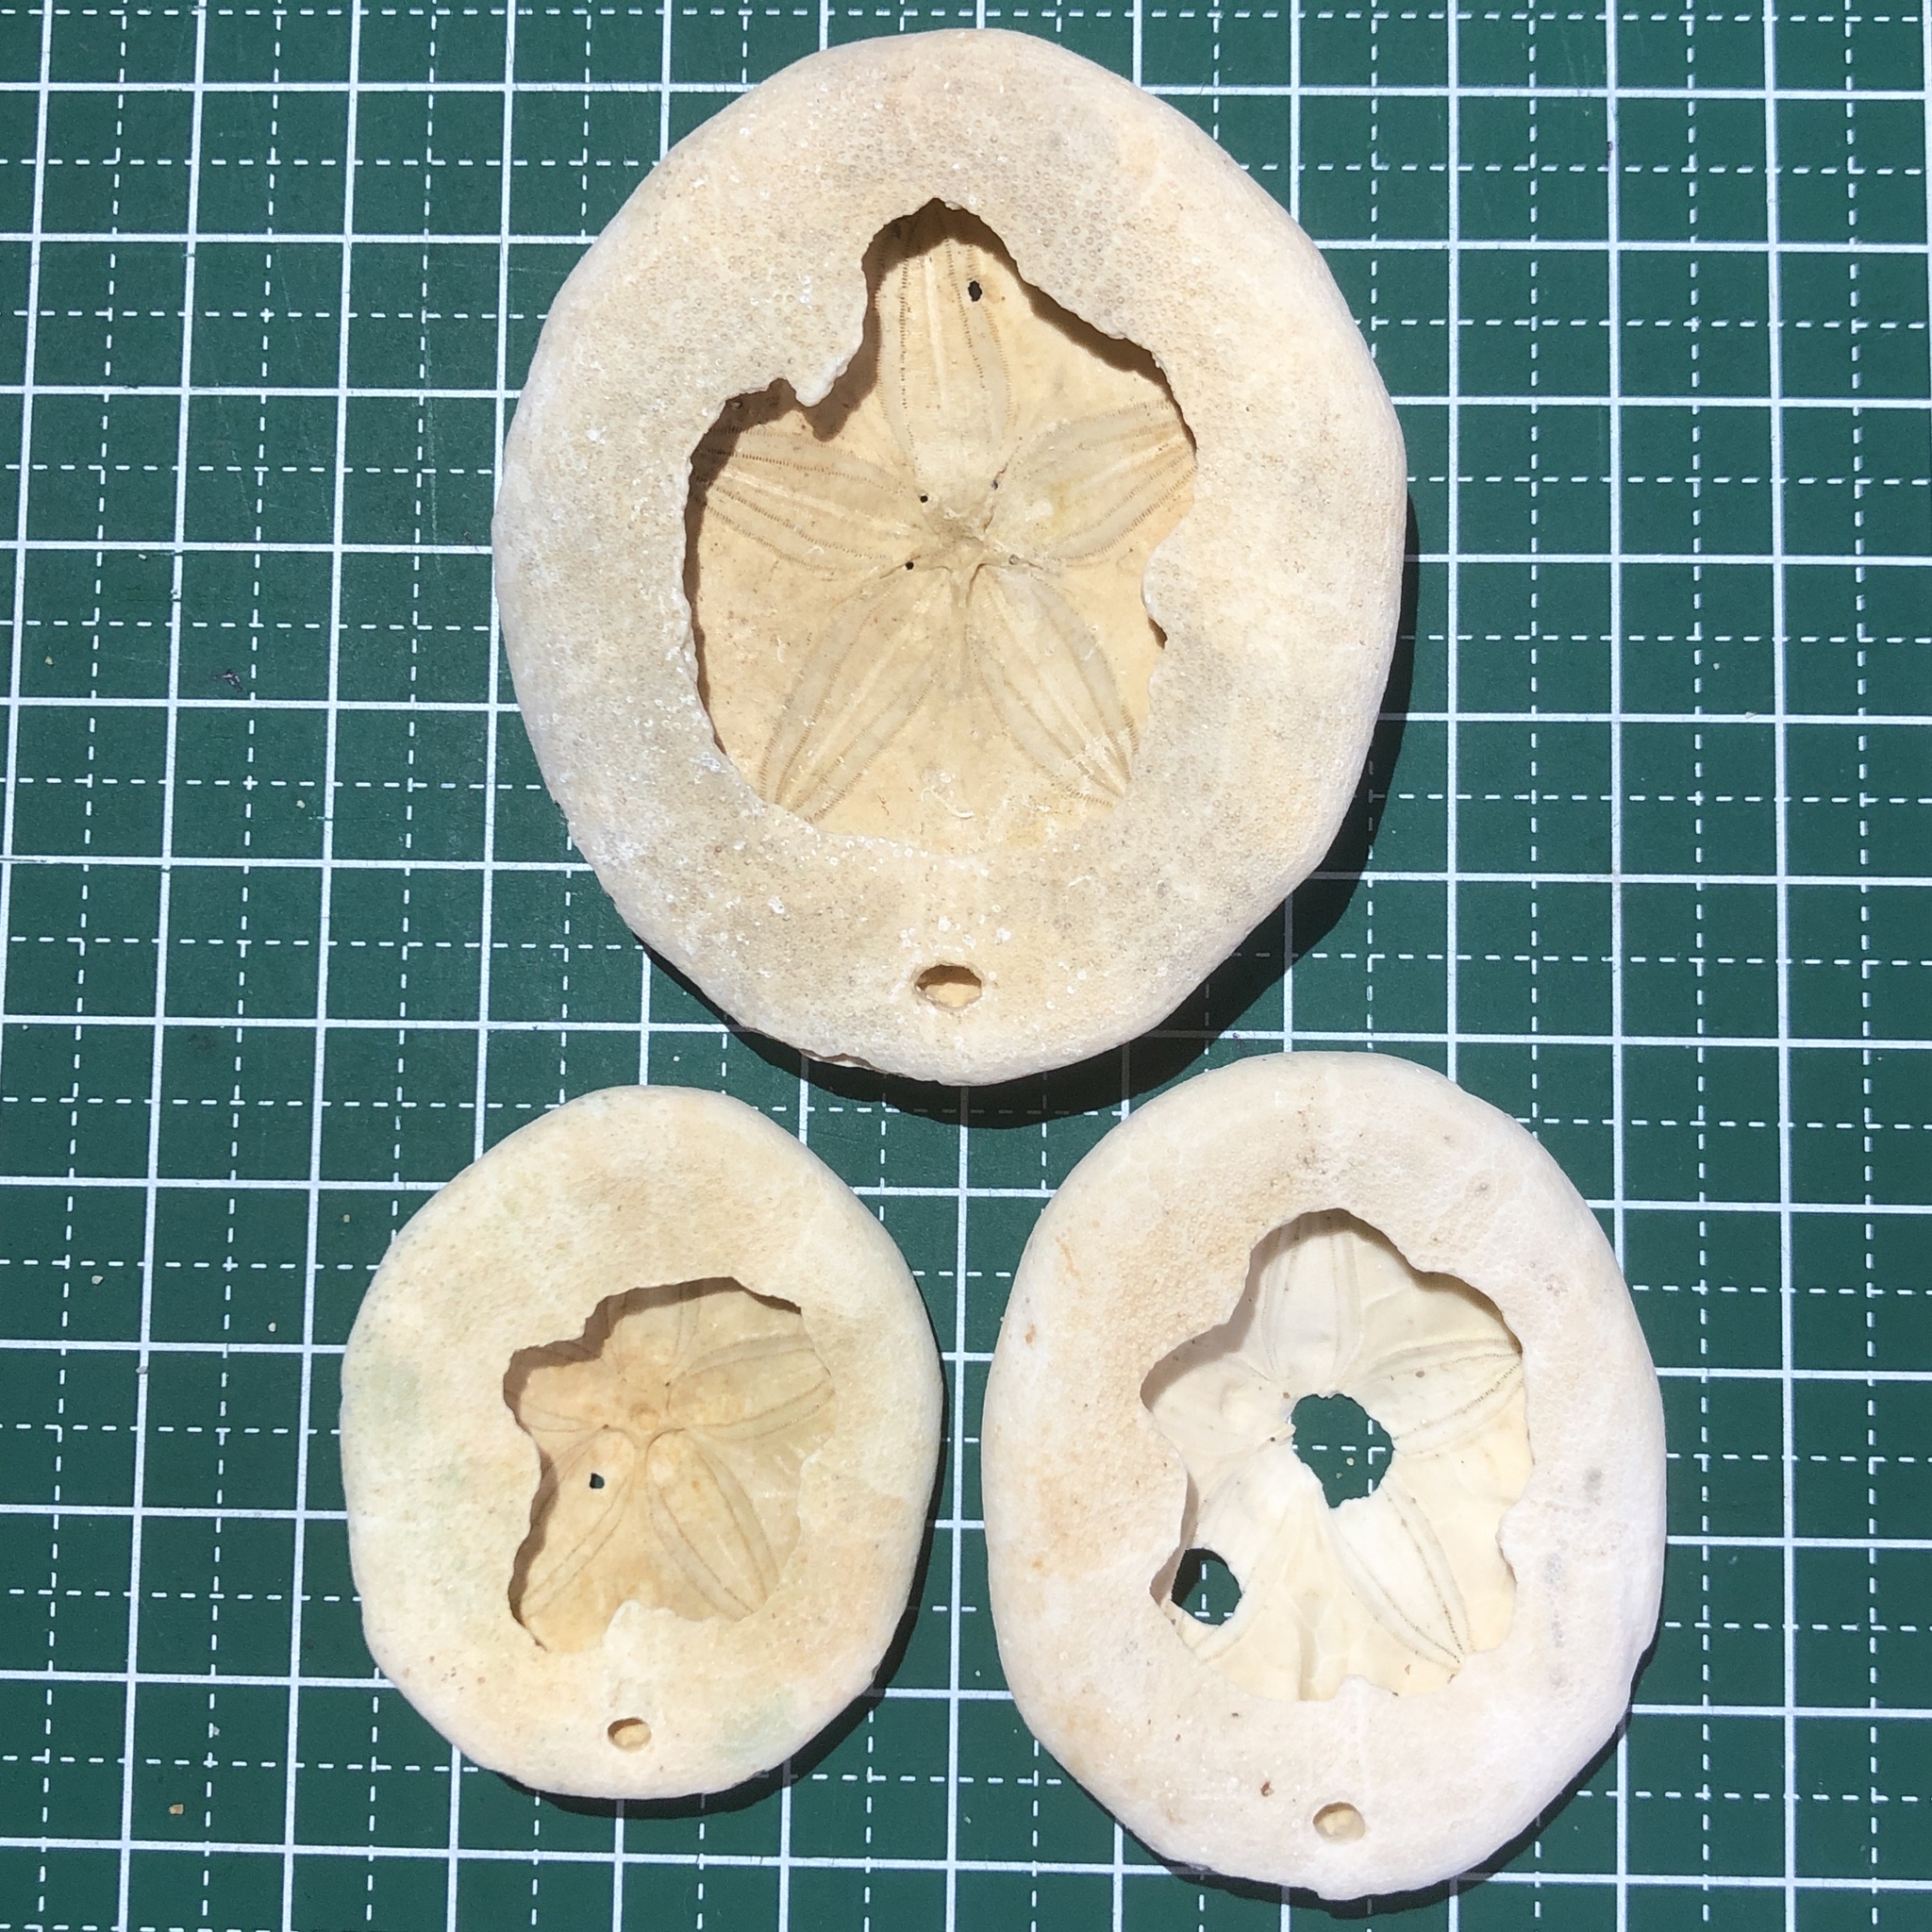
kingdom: Animalia
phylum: Echinodermata
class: Echinoidea
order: Echinolampadacea
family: Laganidae
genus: Peronella
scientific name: Peronella orbicularis
